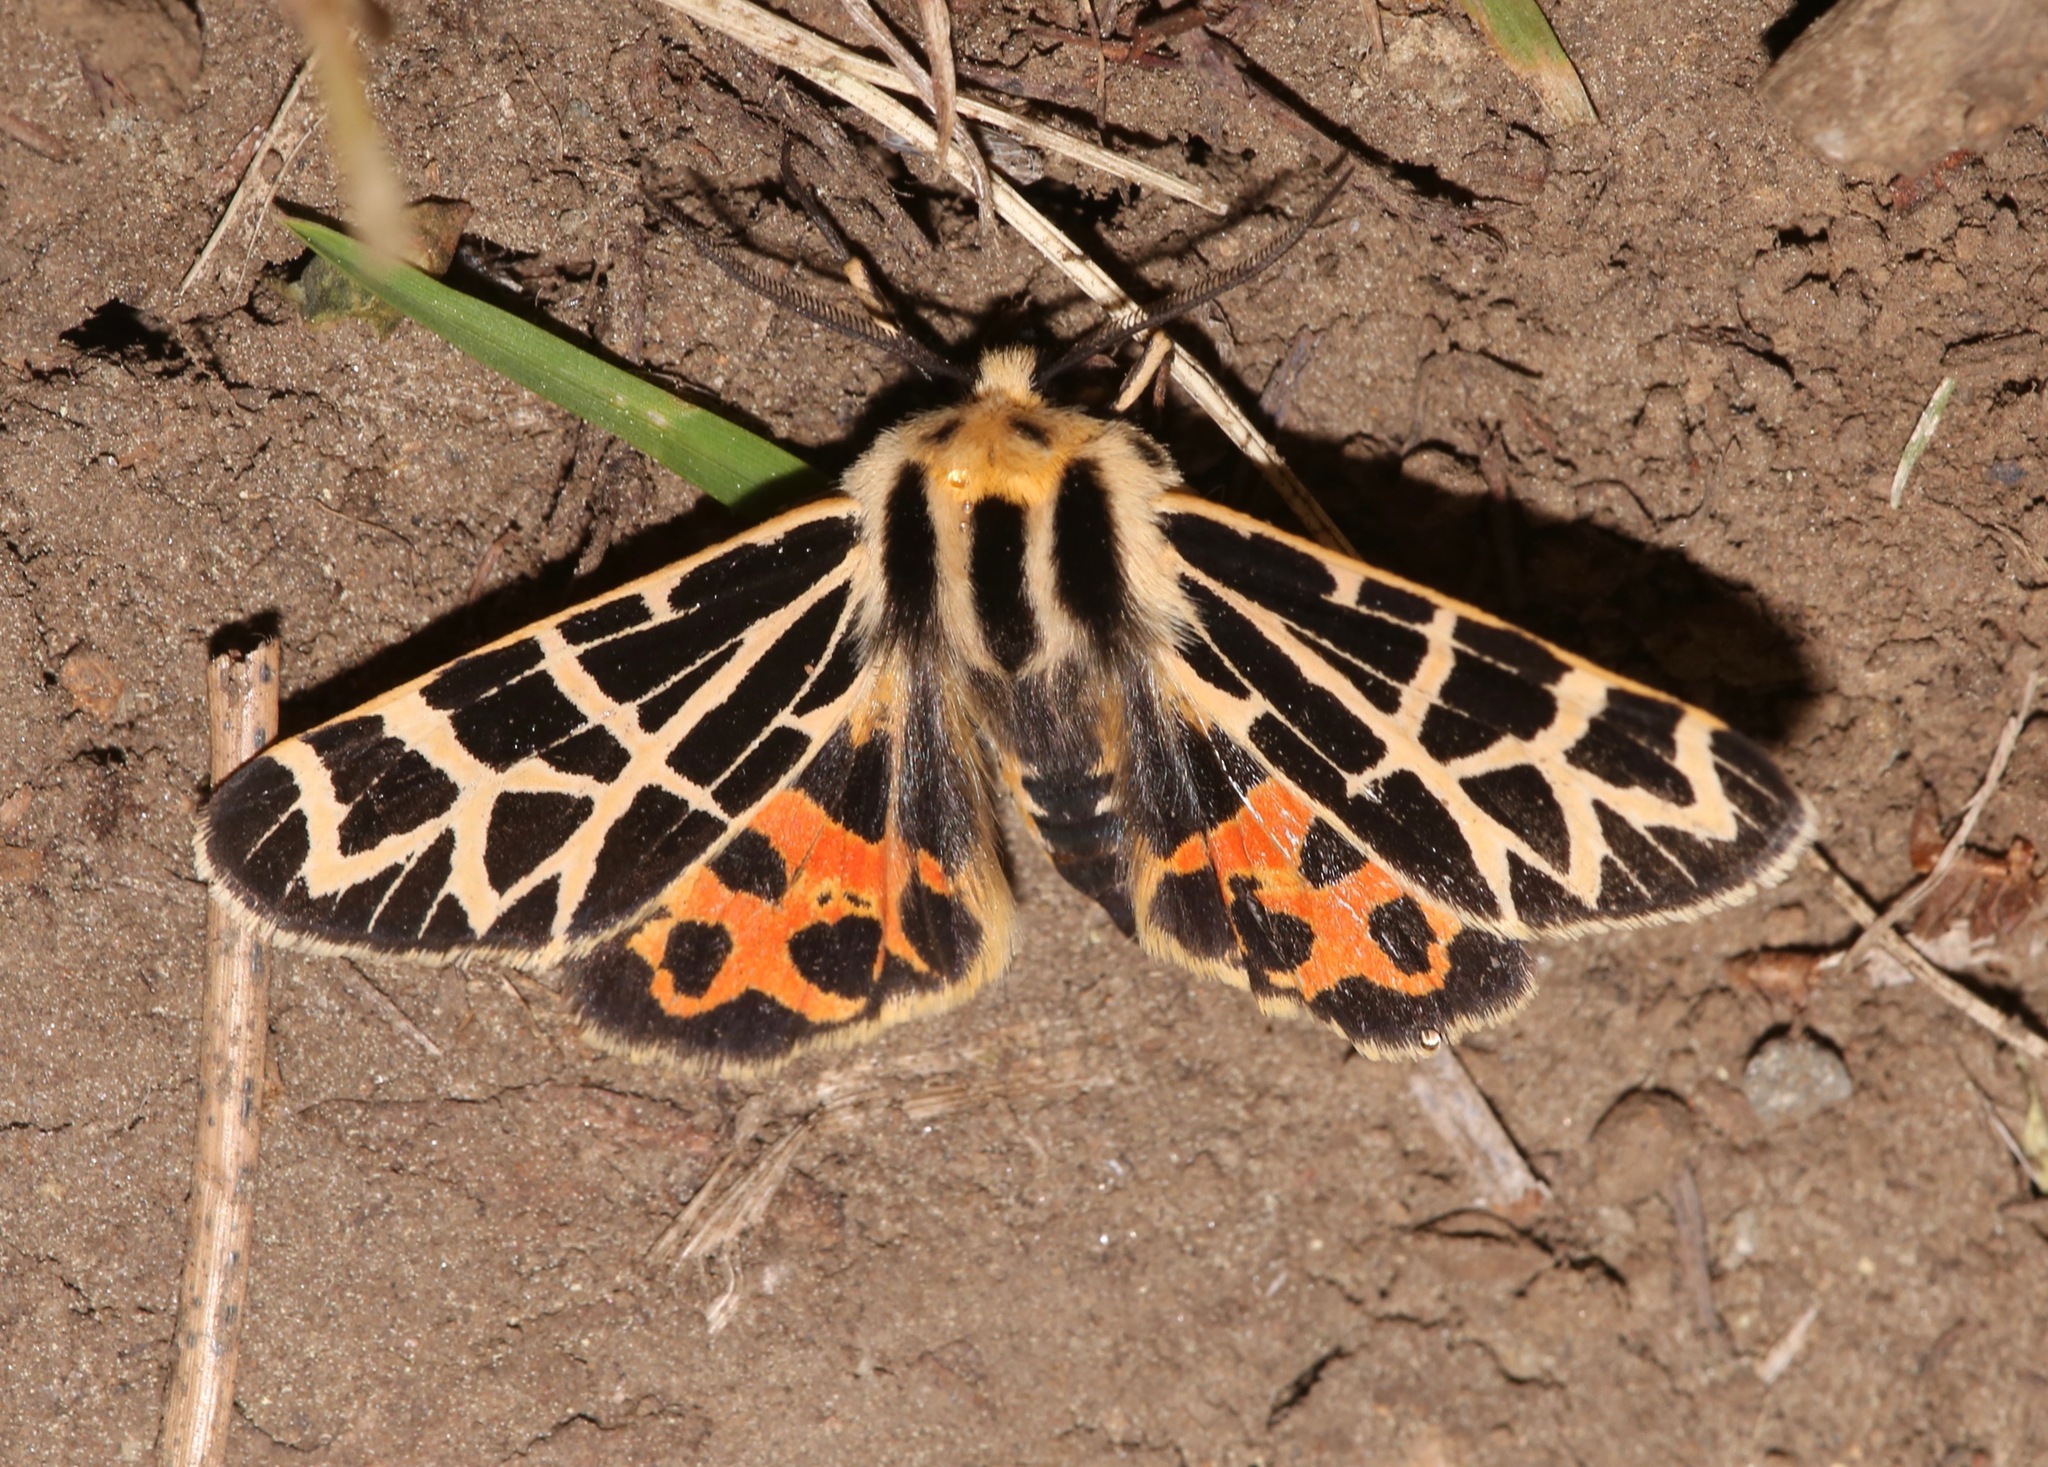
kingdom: Animalia
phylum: Arthropoda
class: Insecta
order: Lepidoptera
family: Erebidae
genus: Apantesis
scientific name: Apantesis
